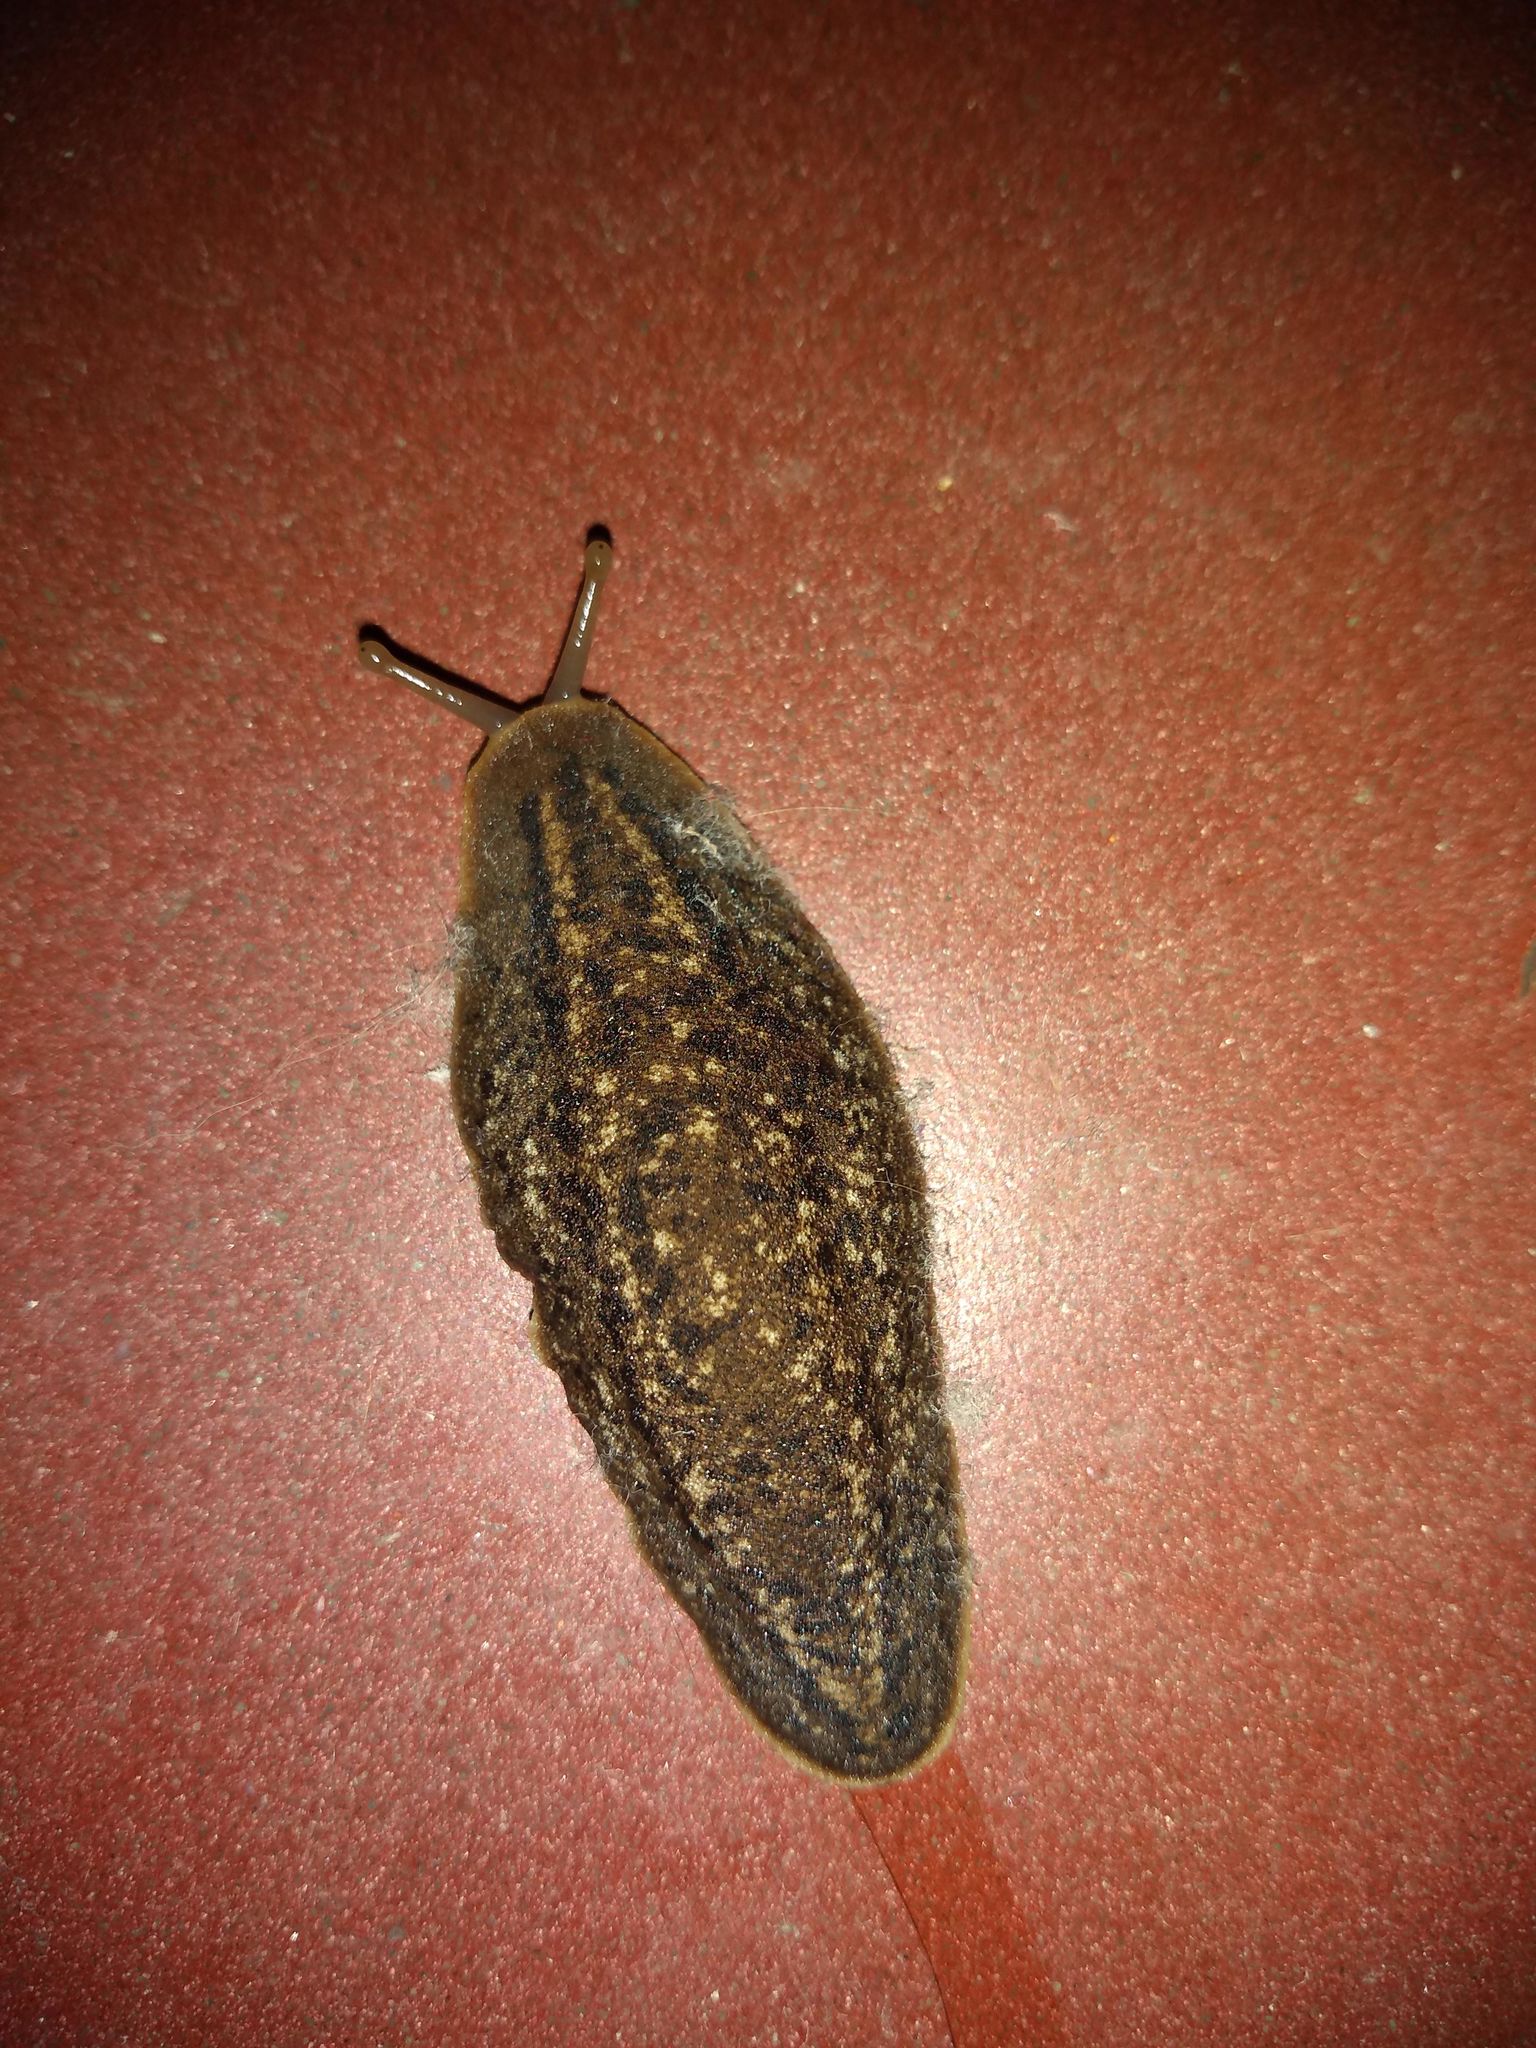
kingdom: Animalia
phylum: Mollusca
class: Gastropoda
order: Systellommatophora
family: Veronicellidae
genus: Phyllocaulis
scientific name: Phyllocaulis soleiformis
